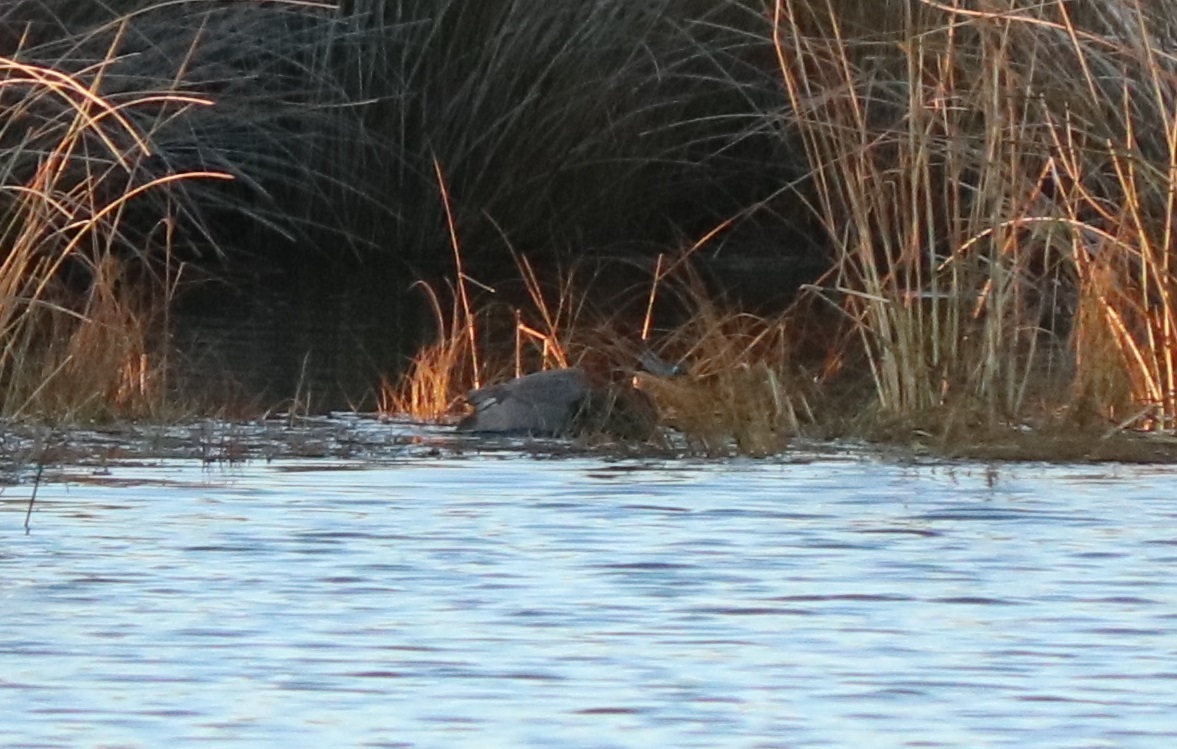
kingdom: Animalia
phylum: Chordata
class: Aves
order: Anseriformes
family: Anatidae
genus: Aythya
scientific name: Aythya americana
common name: Redhead
